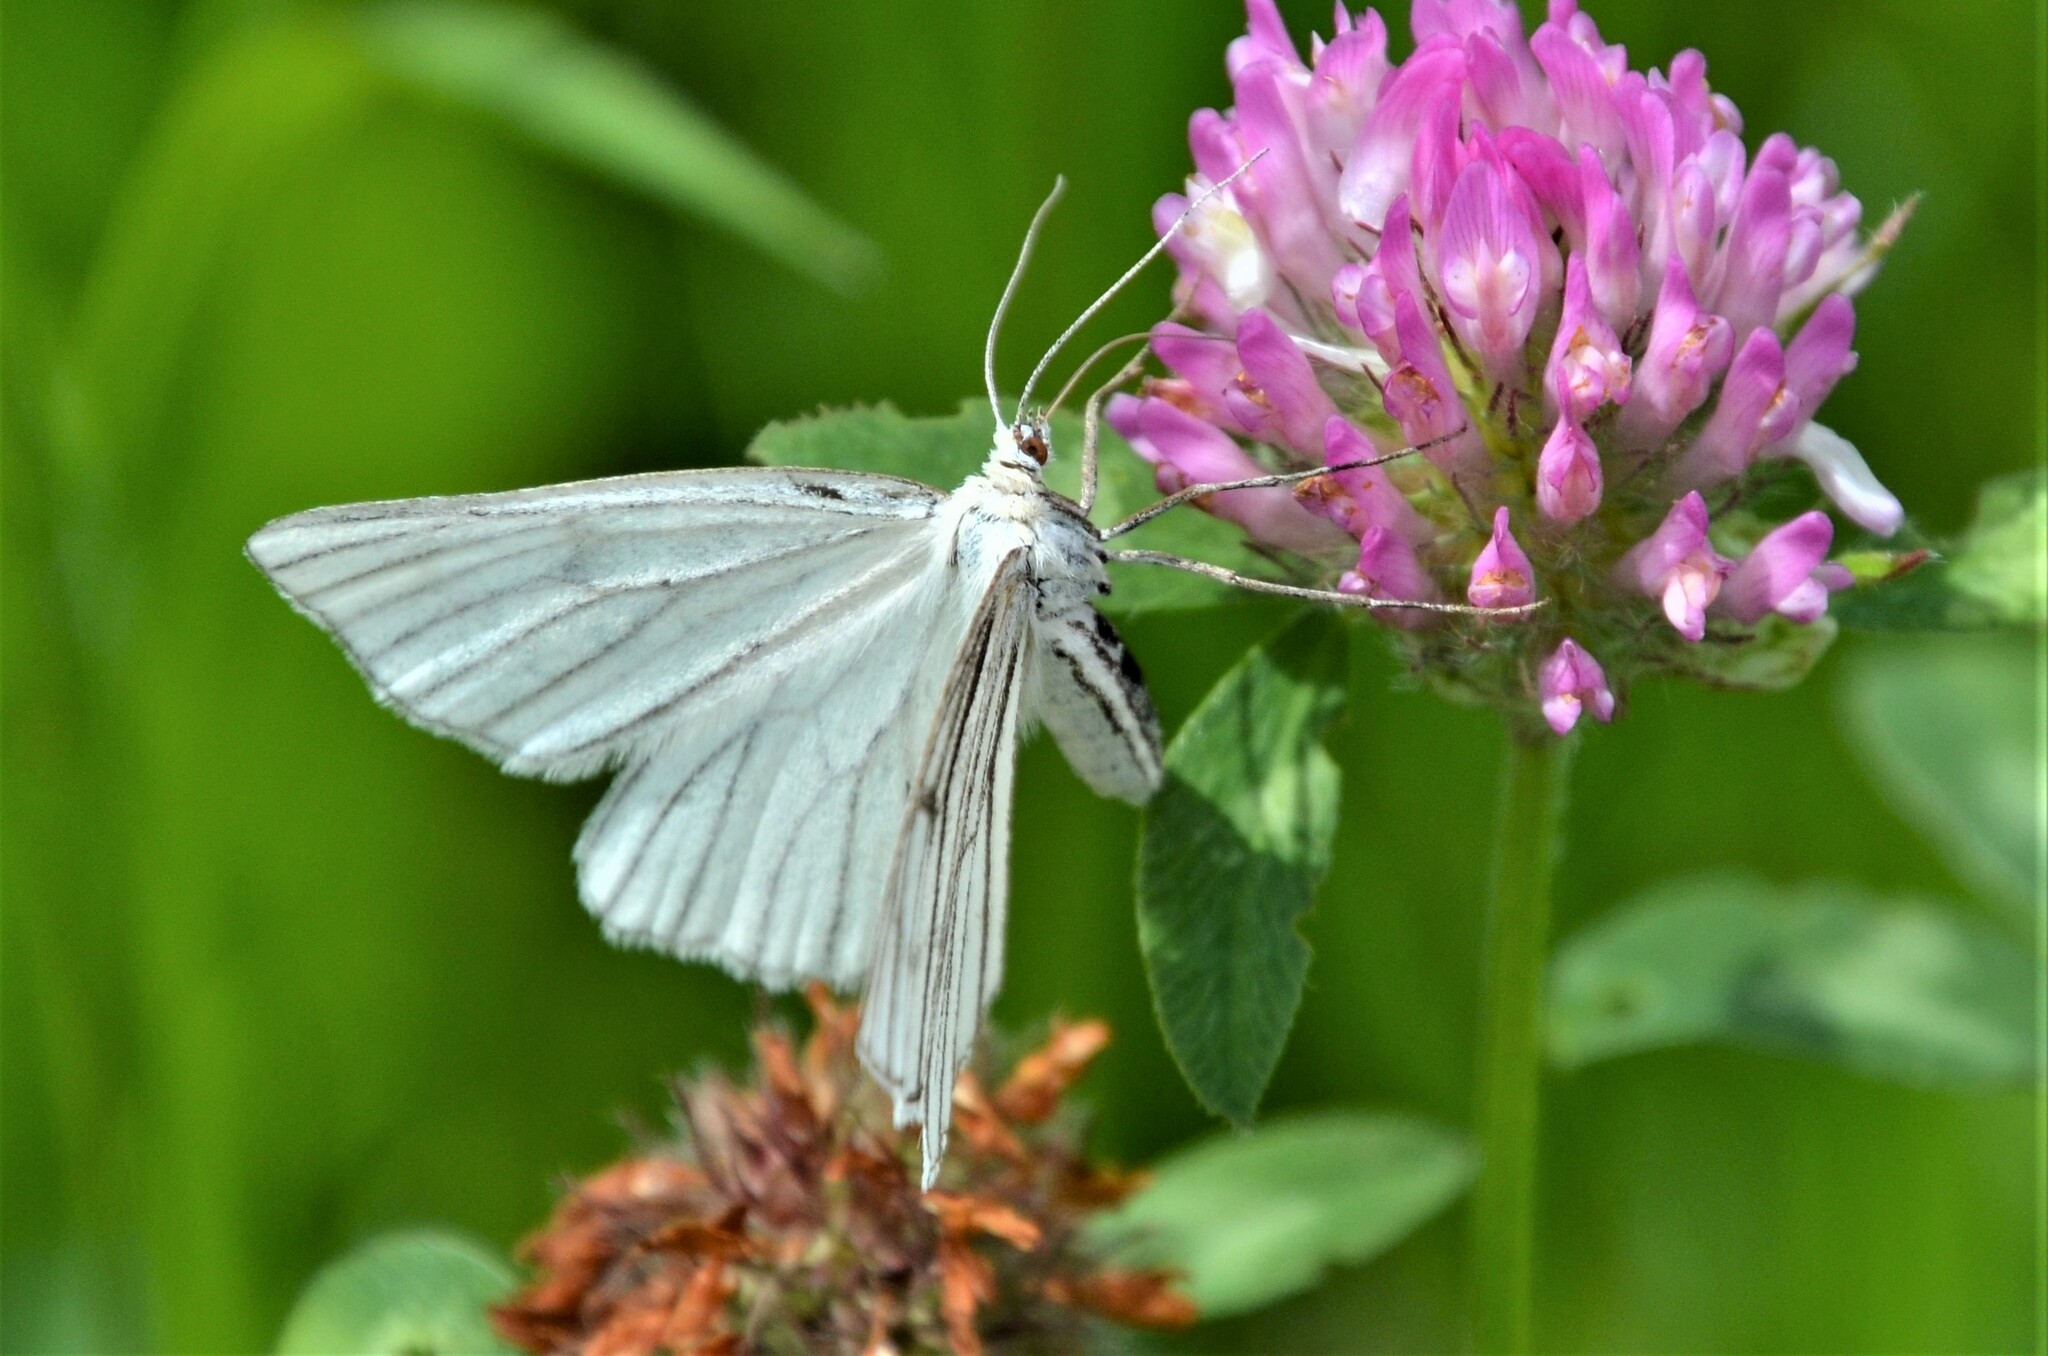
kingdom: Animalia
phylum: Arthropoda
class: Insecta
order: Lepidoptera
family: Geometridae
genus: Siona
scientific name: Siona lineata
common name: Black-veined moth
